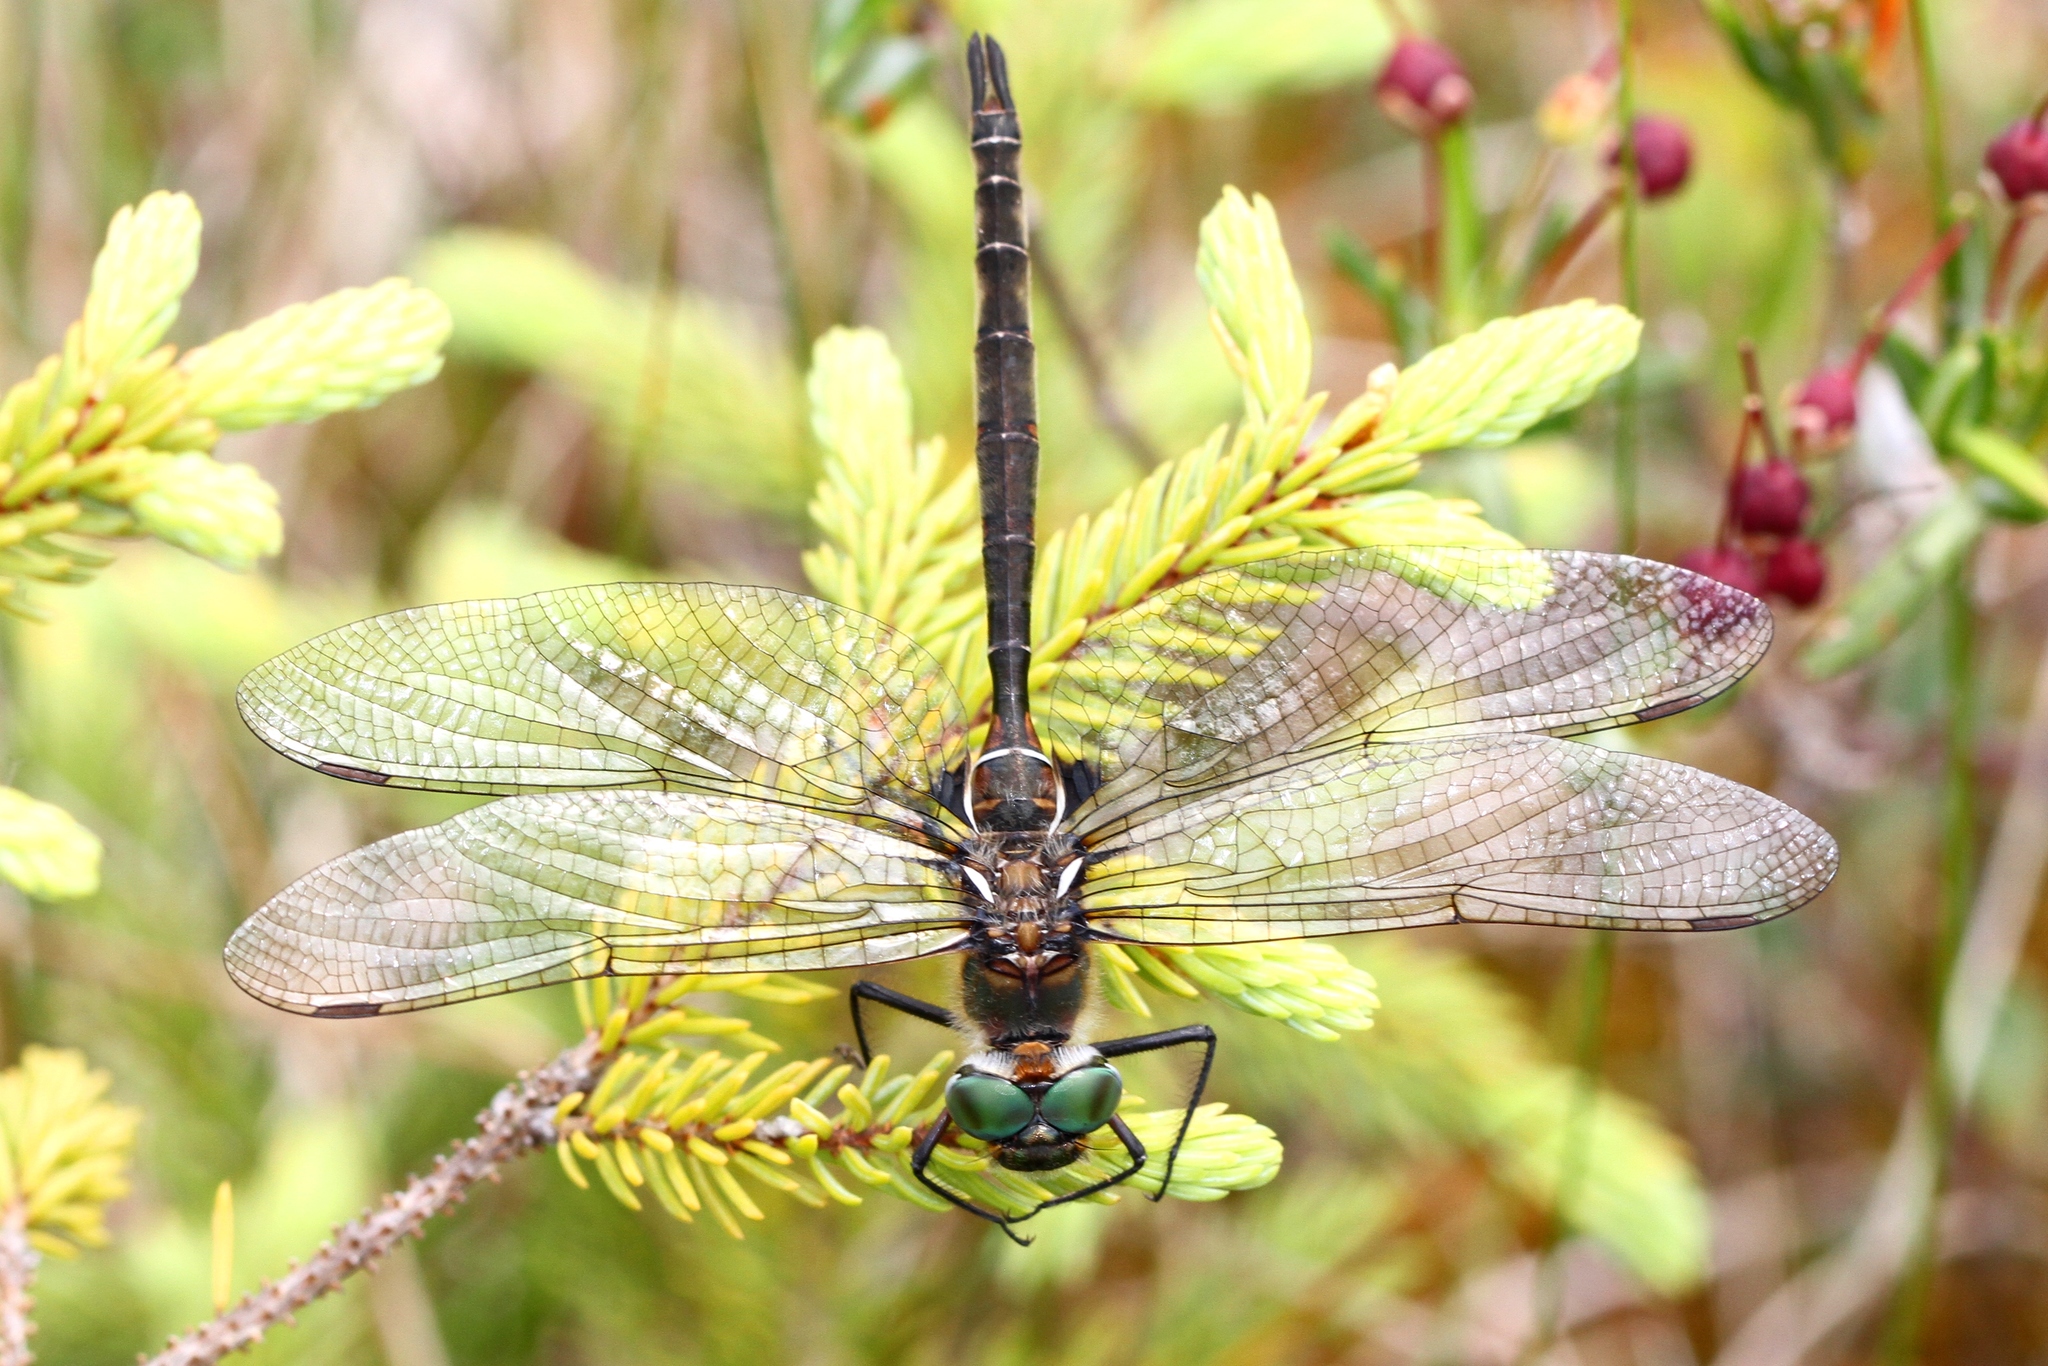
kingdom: Animalia
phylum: Arthropoda
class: Insecta
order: Odonata
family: Corduliidae
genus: Somatochlora
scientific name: Somatochlora septentrionalis
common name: Muskeg emerald
